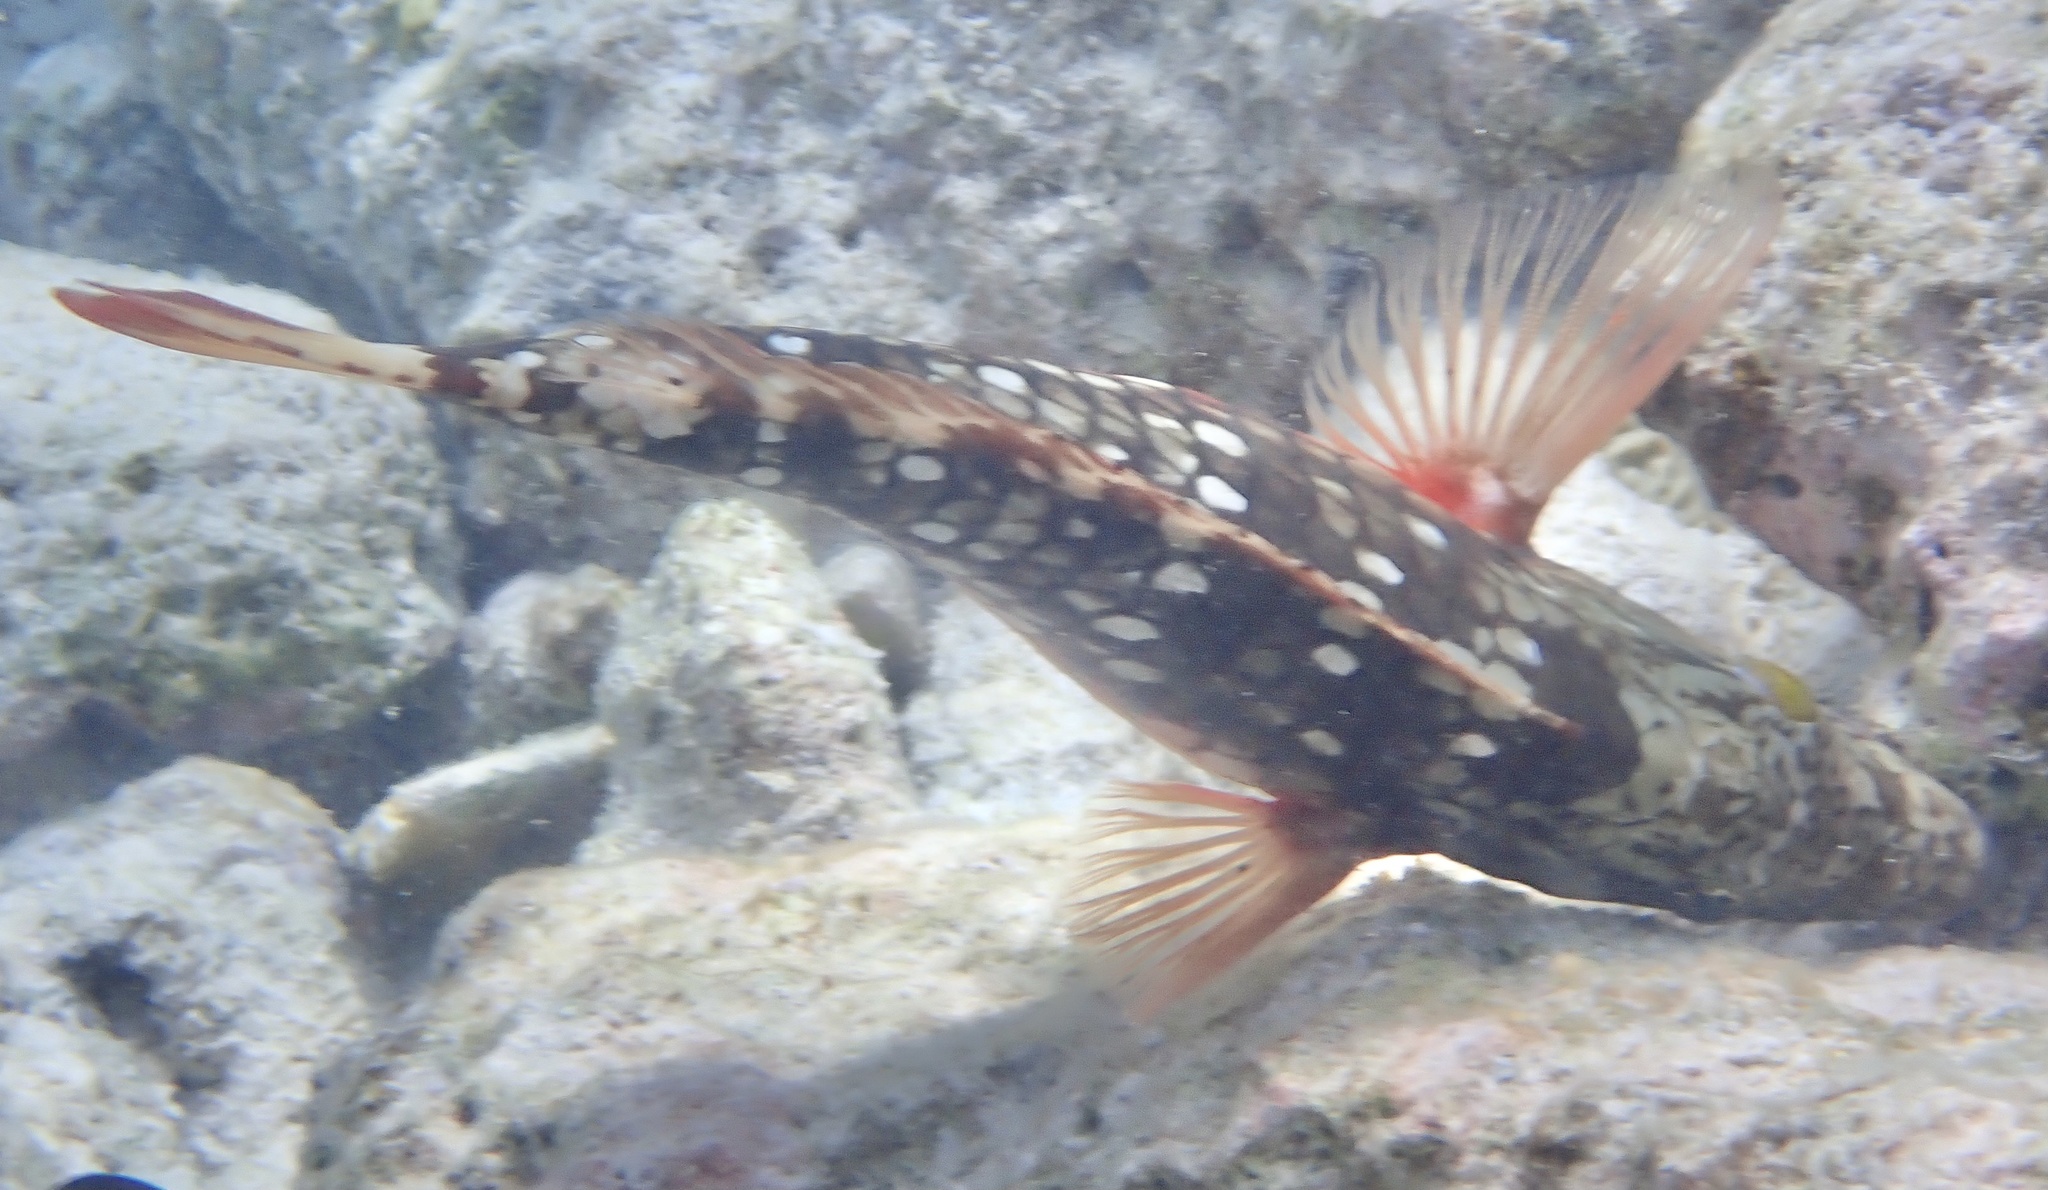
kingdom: Animalia
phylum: Chordata
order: Perciformes
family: Scaridae
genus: Sparisoma
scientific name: Sparisoma viride
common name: Stoplight parrotfish
